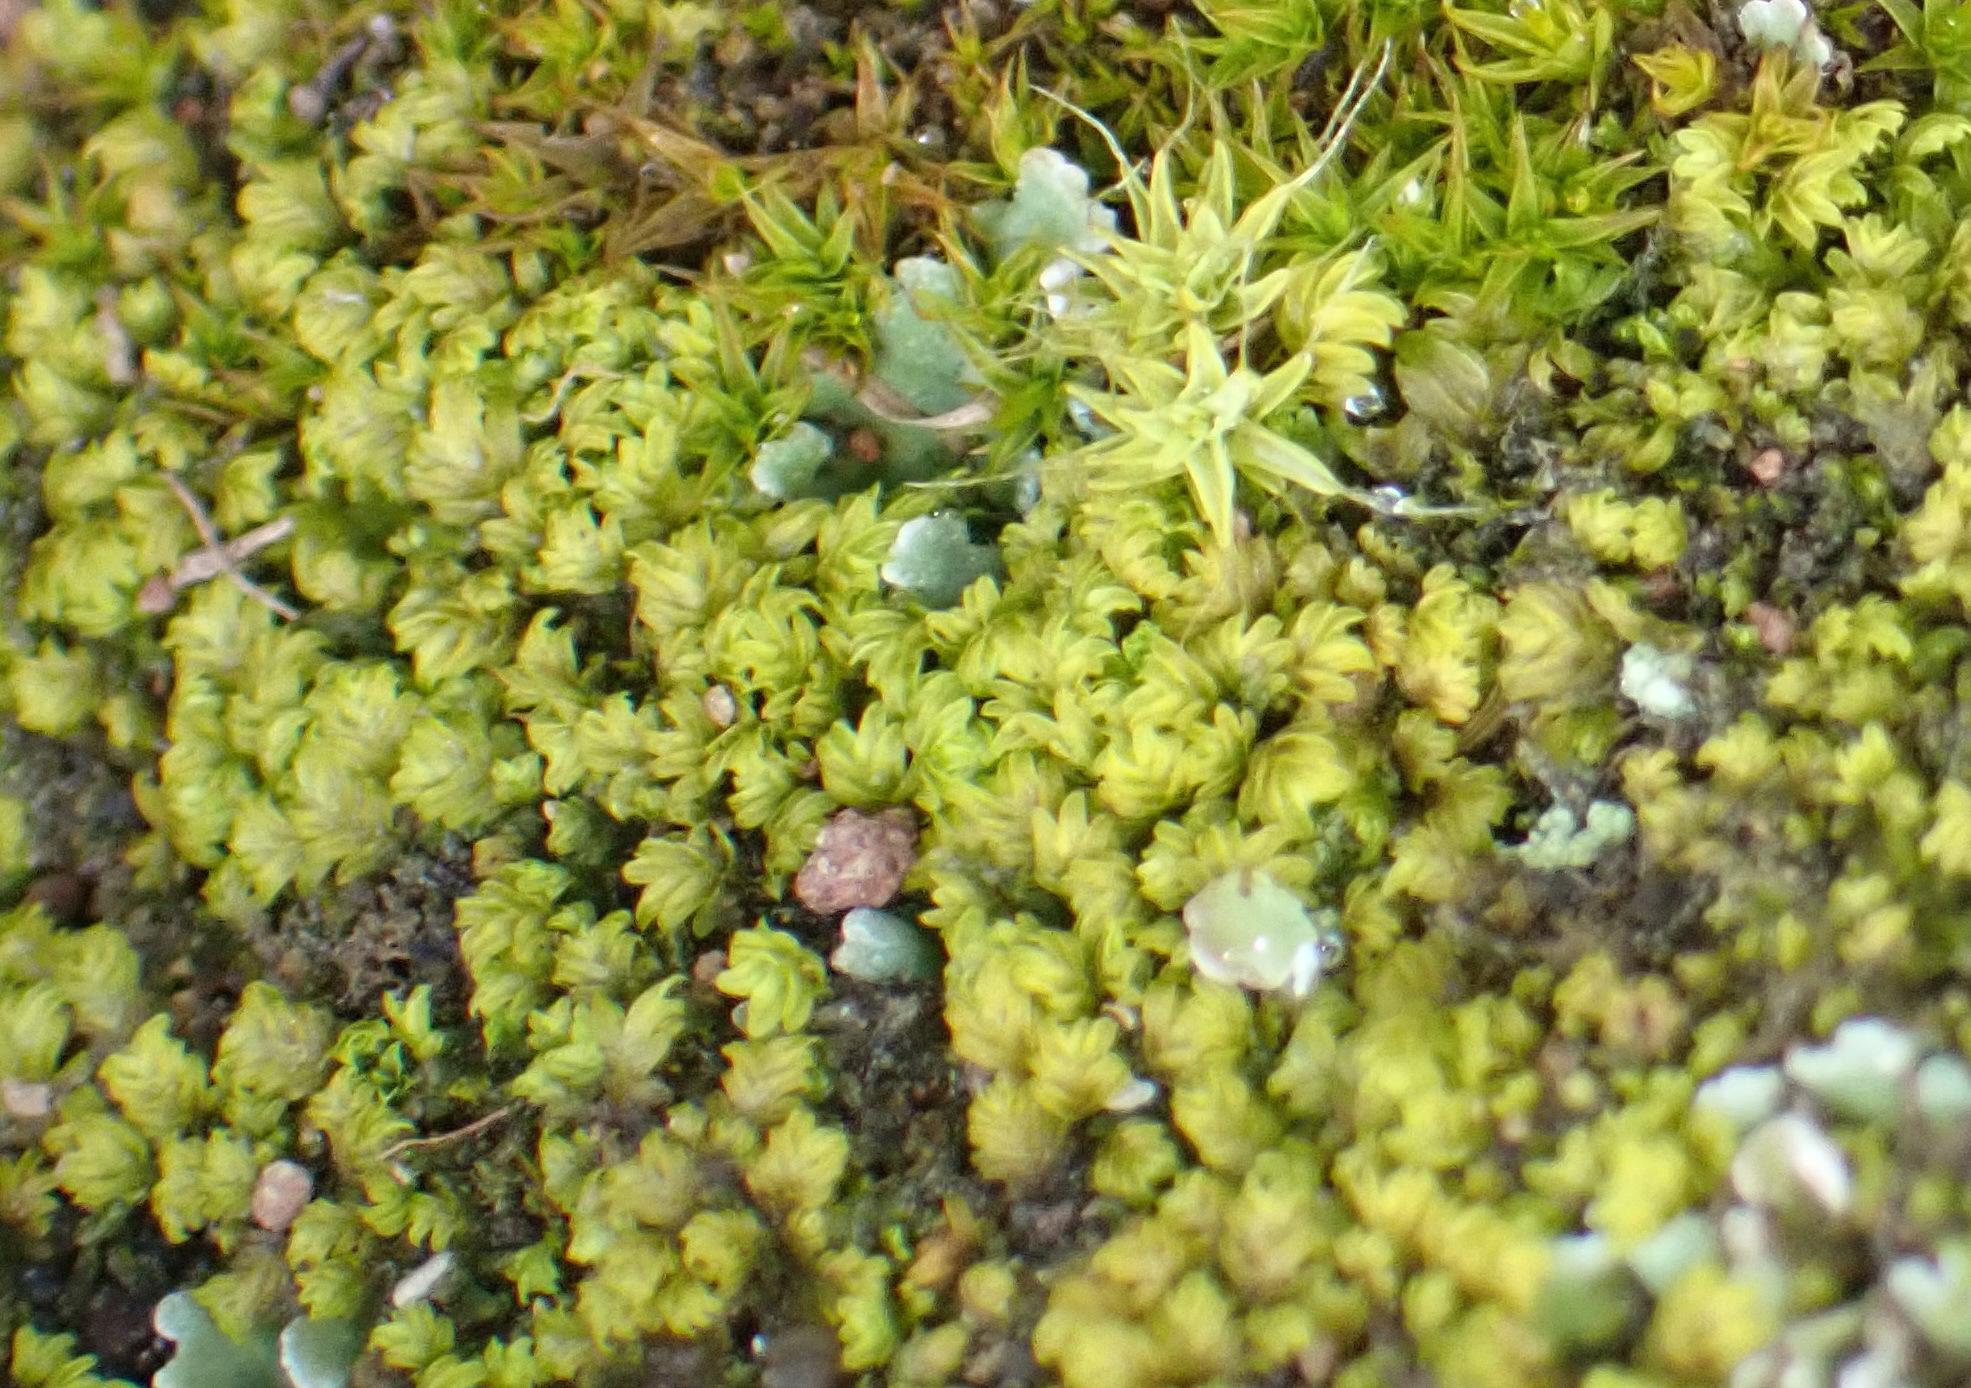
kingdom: Plantae
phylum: Bryophyta
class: Bryopsida
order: Dicranales
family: Fissidentaceae
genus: Fissidens
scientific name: Fissidens megalotis
